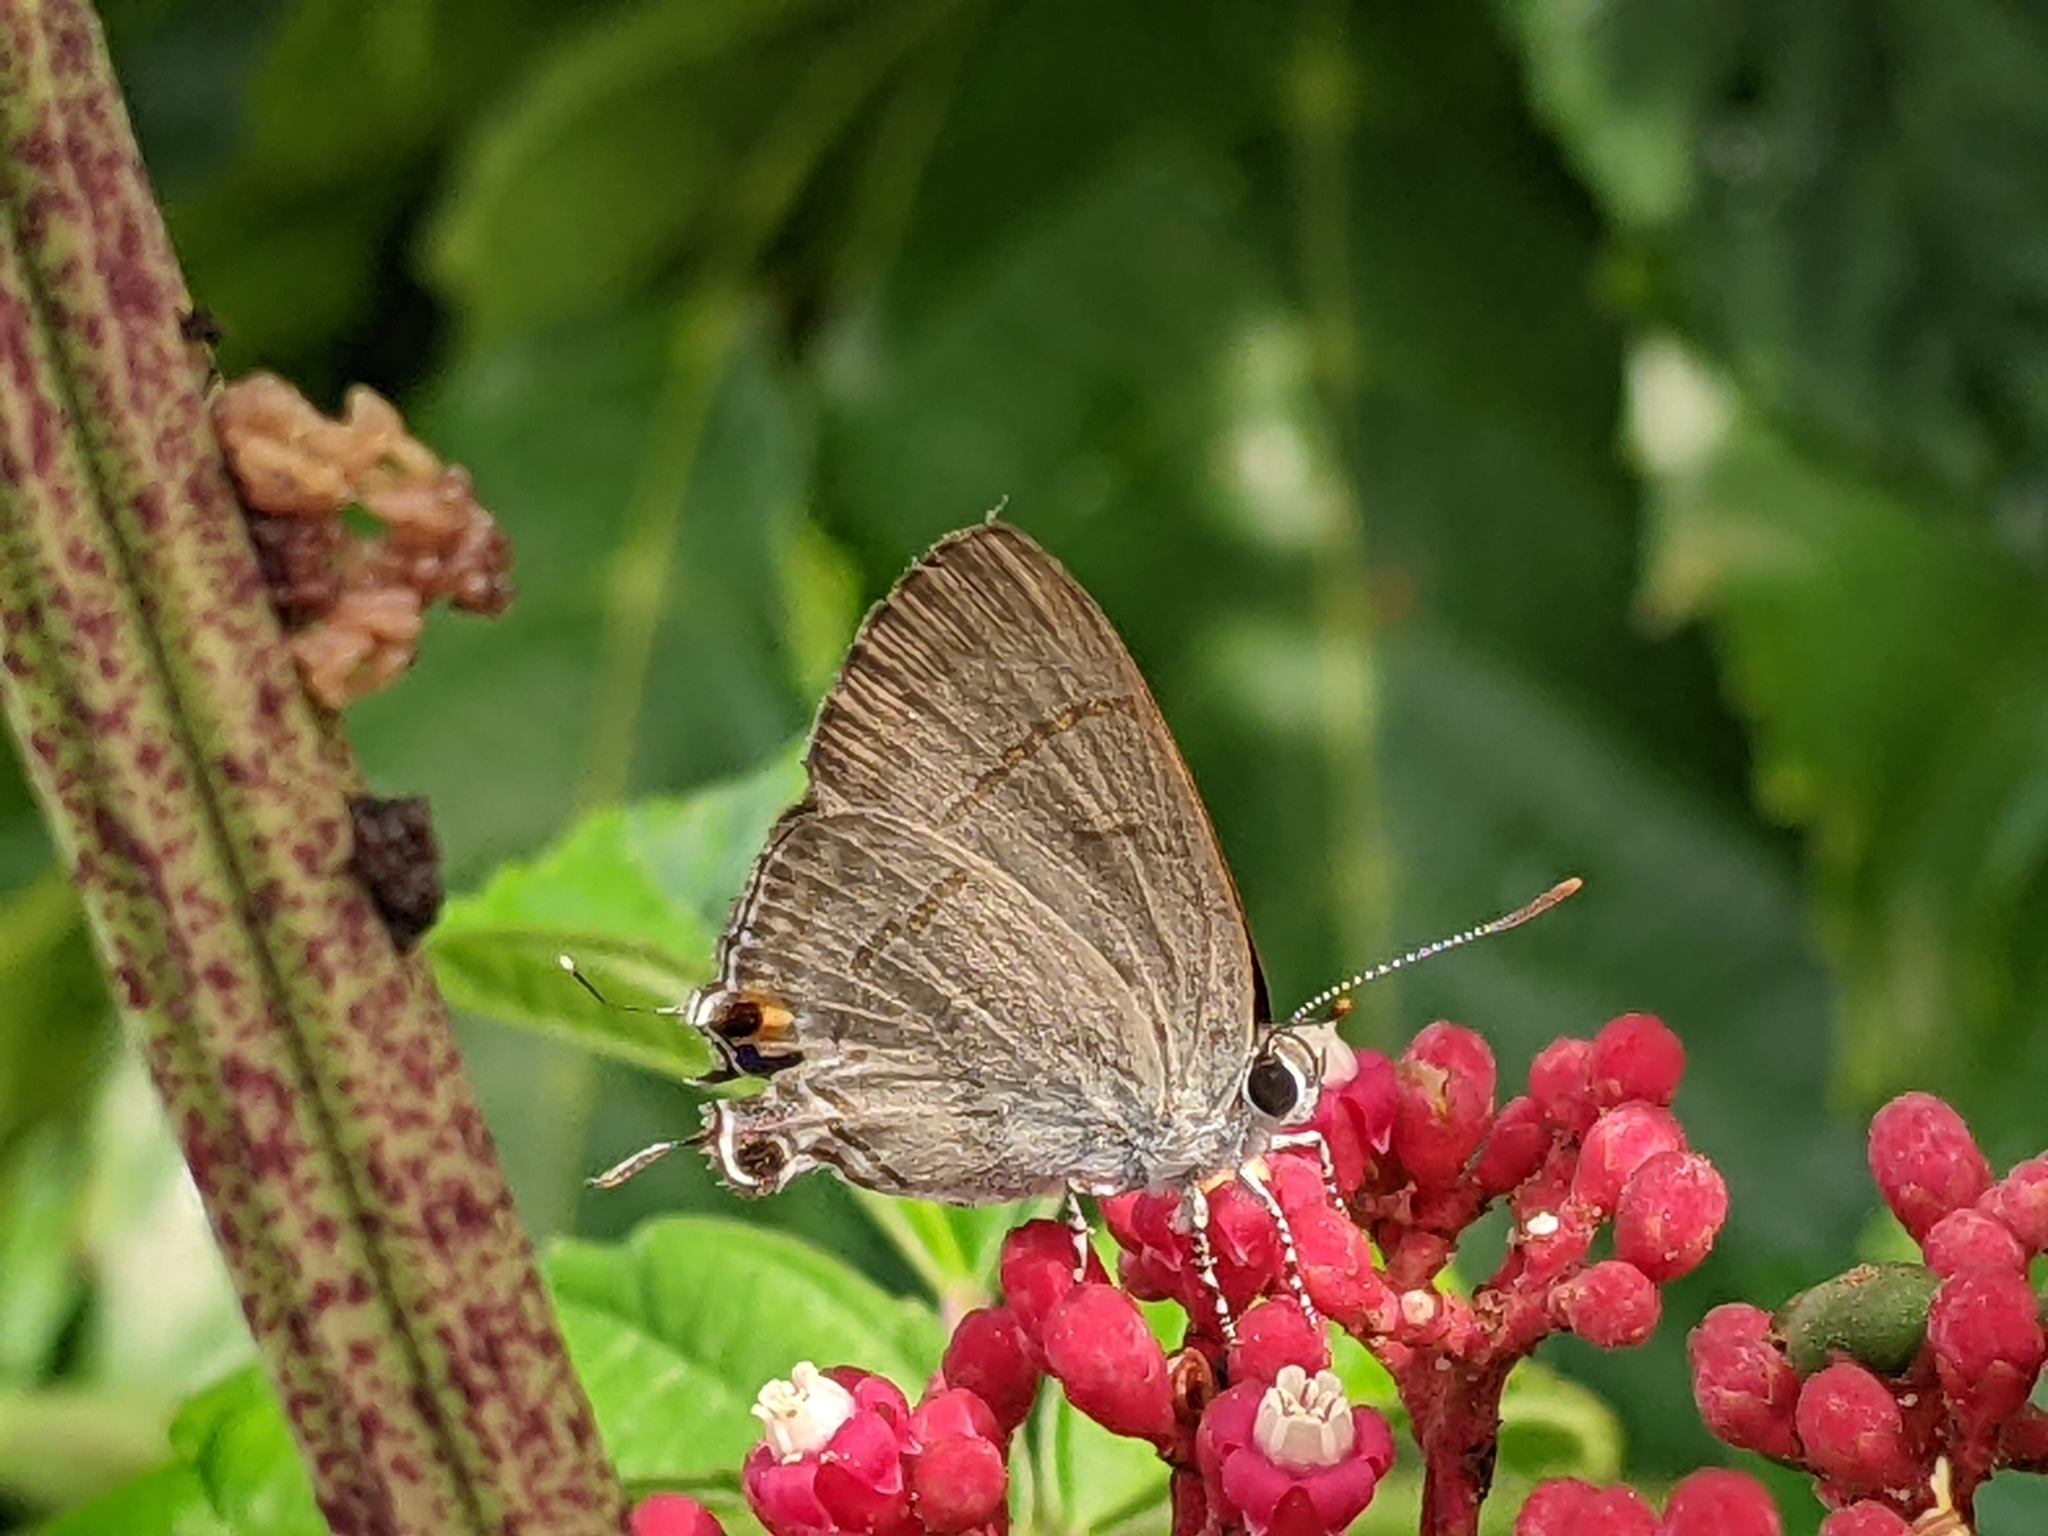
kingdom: Animalia
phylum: Arthropoda
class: Insecta
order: Lepidoptera
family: Lycaenidae
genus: Hypolycaena
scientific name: Hypolycaena erylus
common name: Common tit
